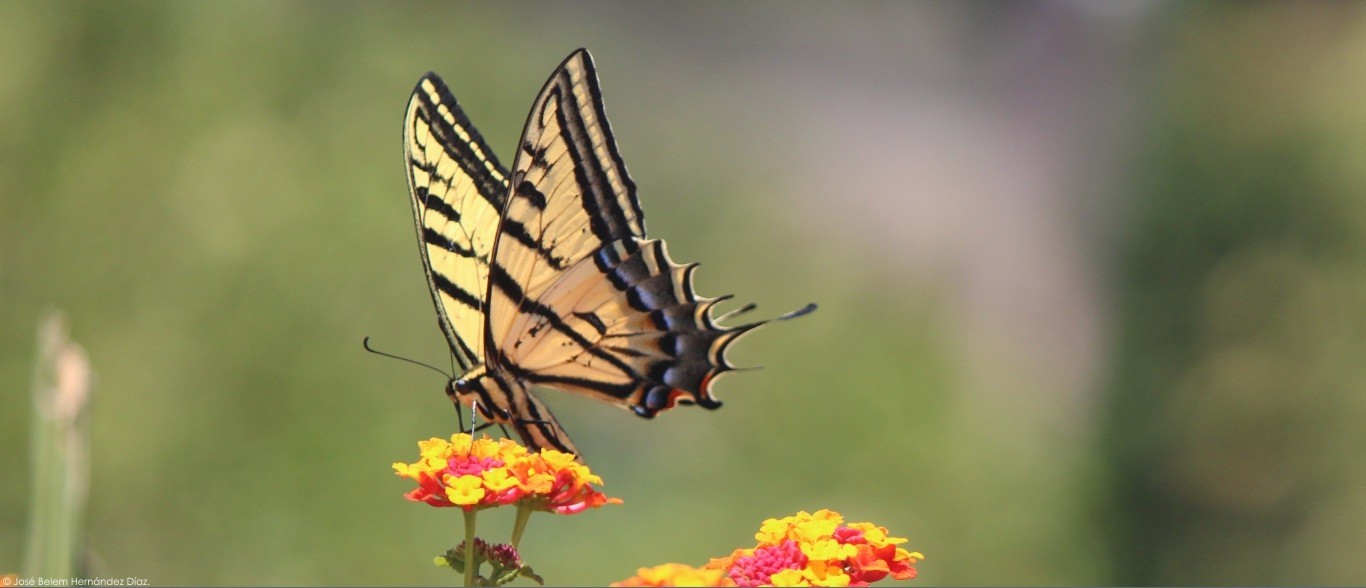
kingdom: Animalia
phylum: Arthropoda
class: Insecta
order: Lepidoptera
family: Papilionidae
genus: Papilio
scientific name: Papilio multicaudata
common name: Two-tailed tiger swallowtail
